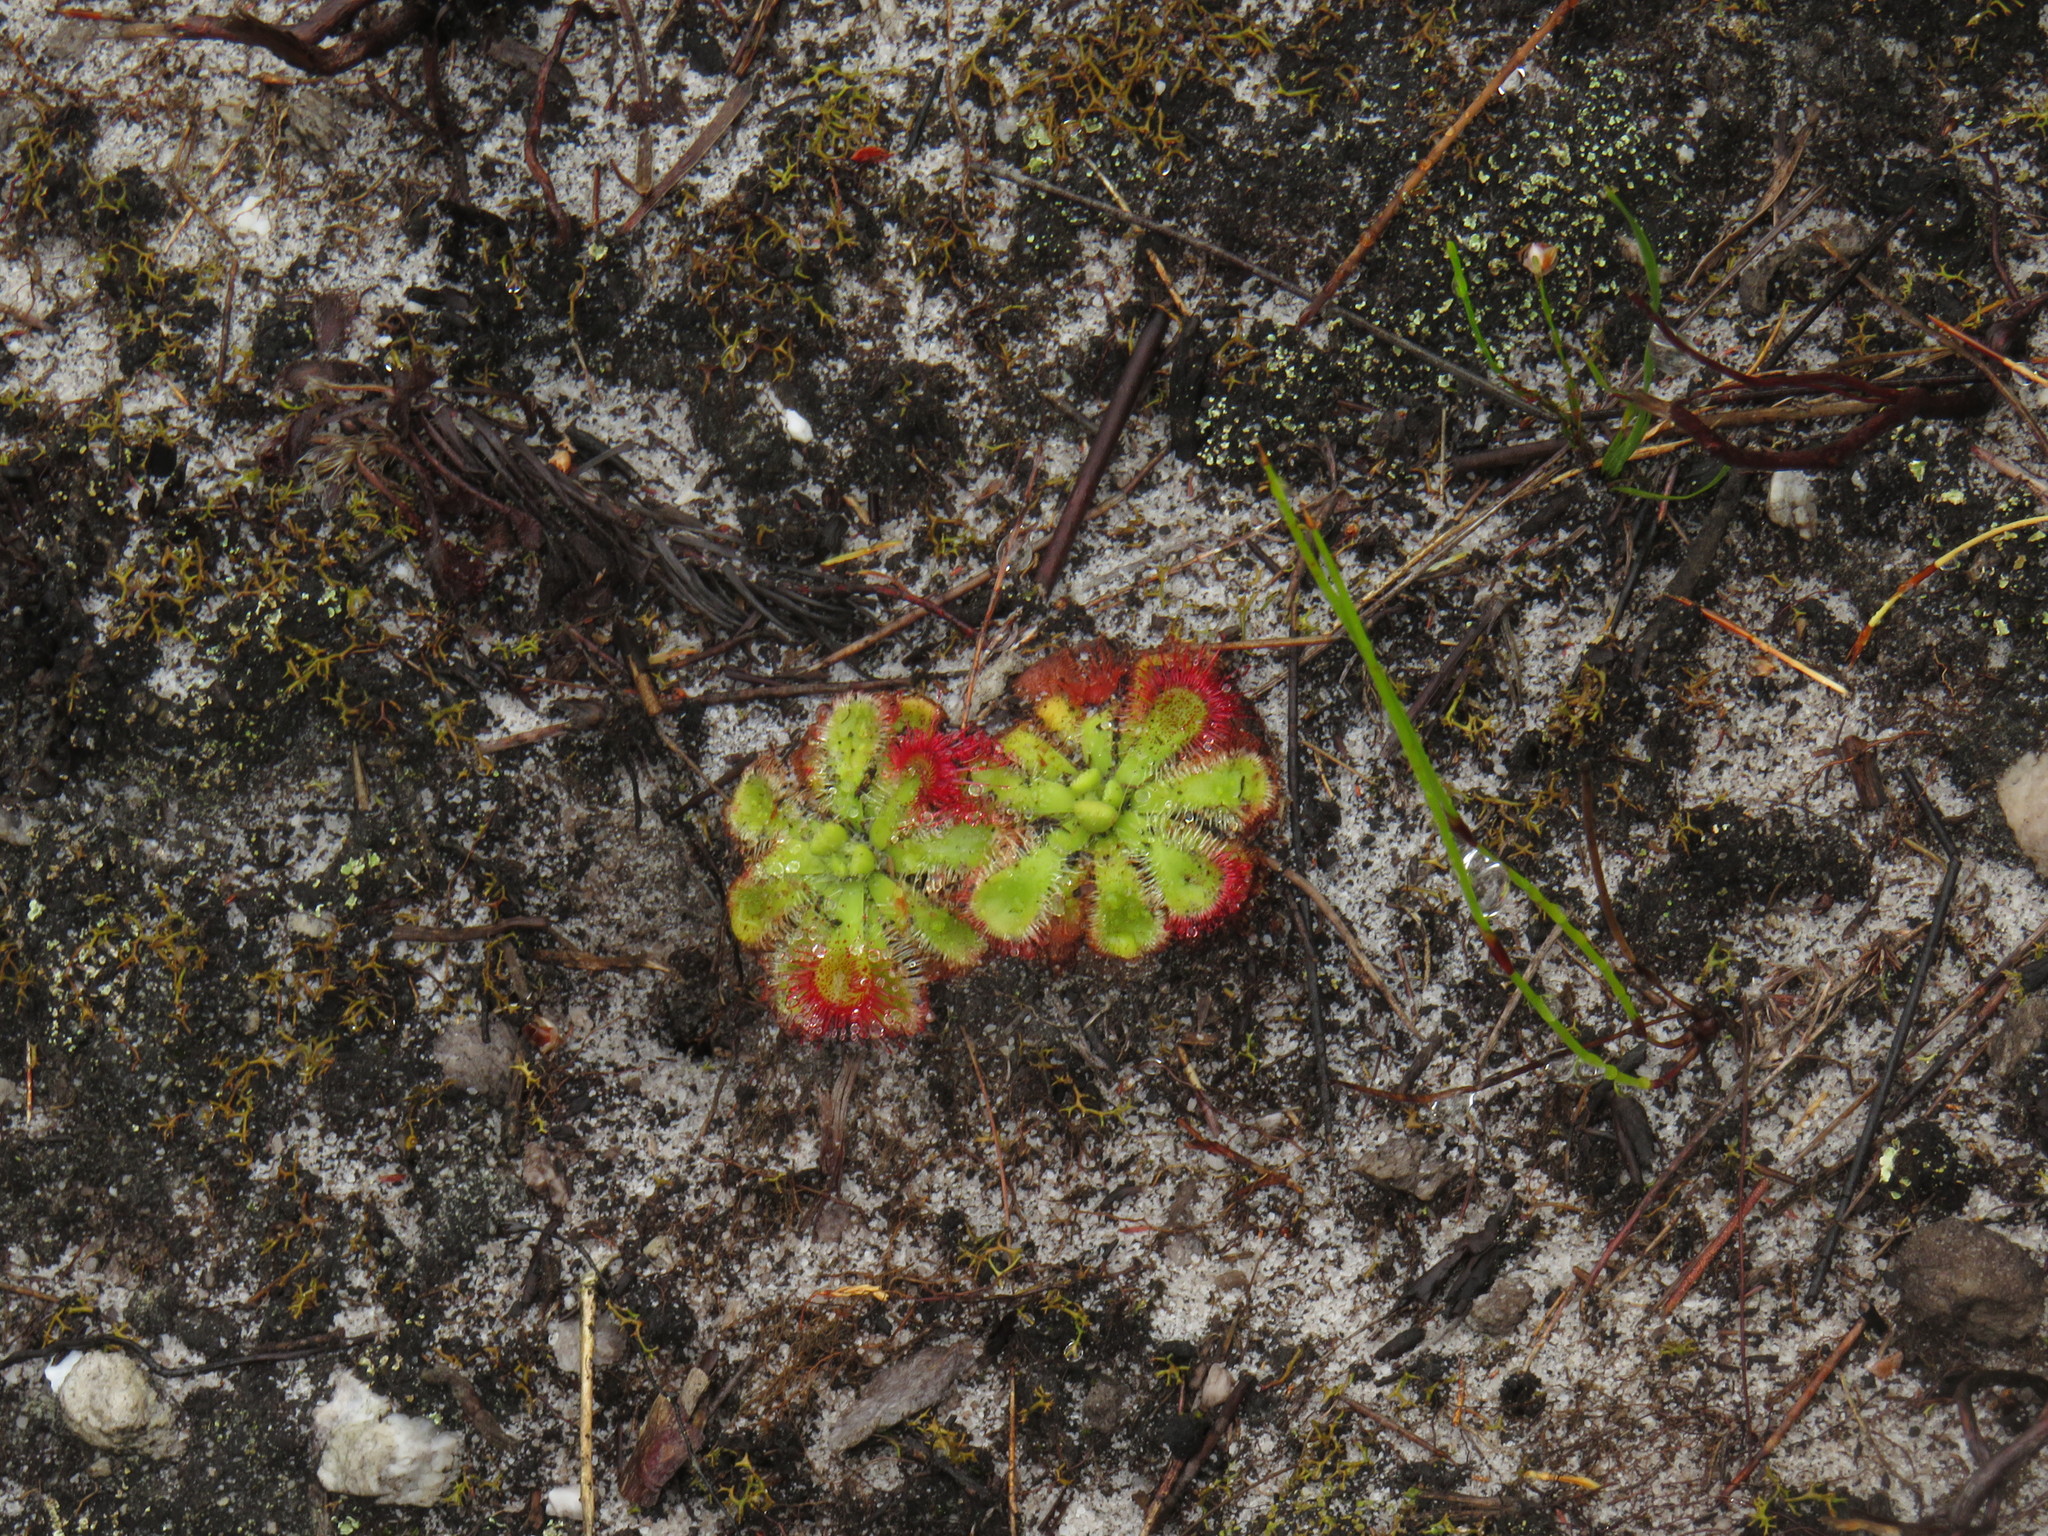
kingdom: Plantae
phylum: Tracheophyta
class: Magnoliopsida
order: Caryophyllales
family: Droseraceae
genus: Drosera
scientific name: Drosera xerophila
